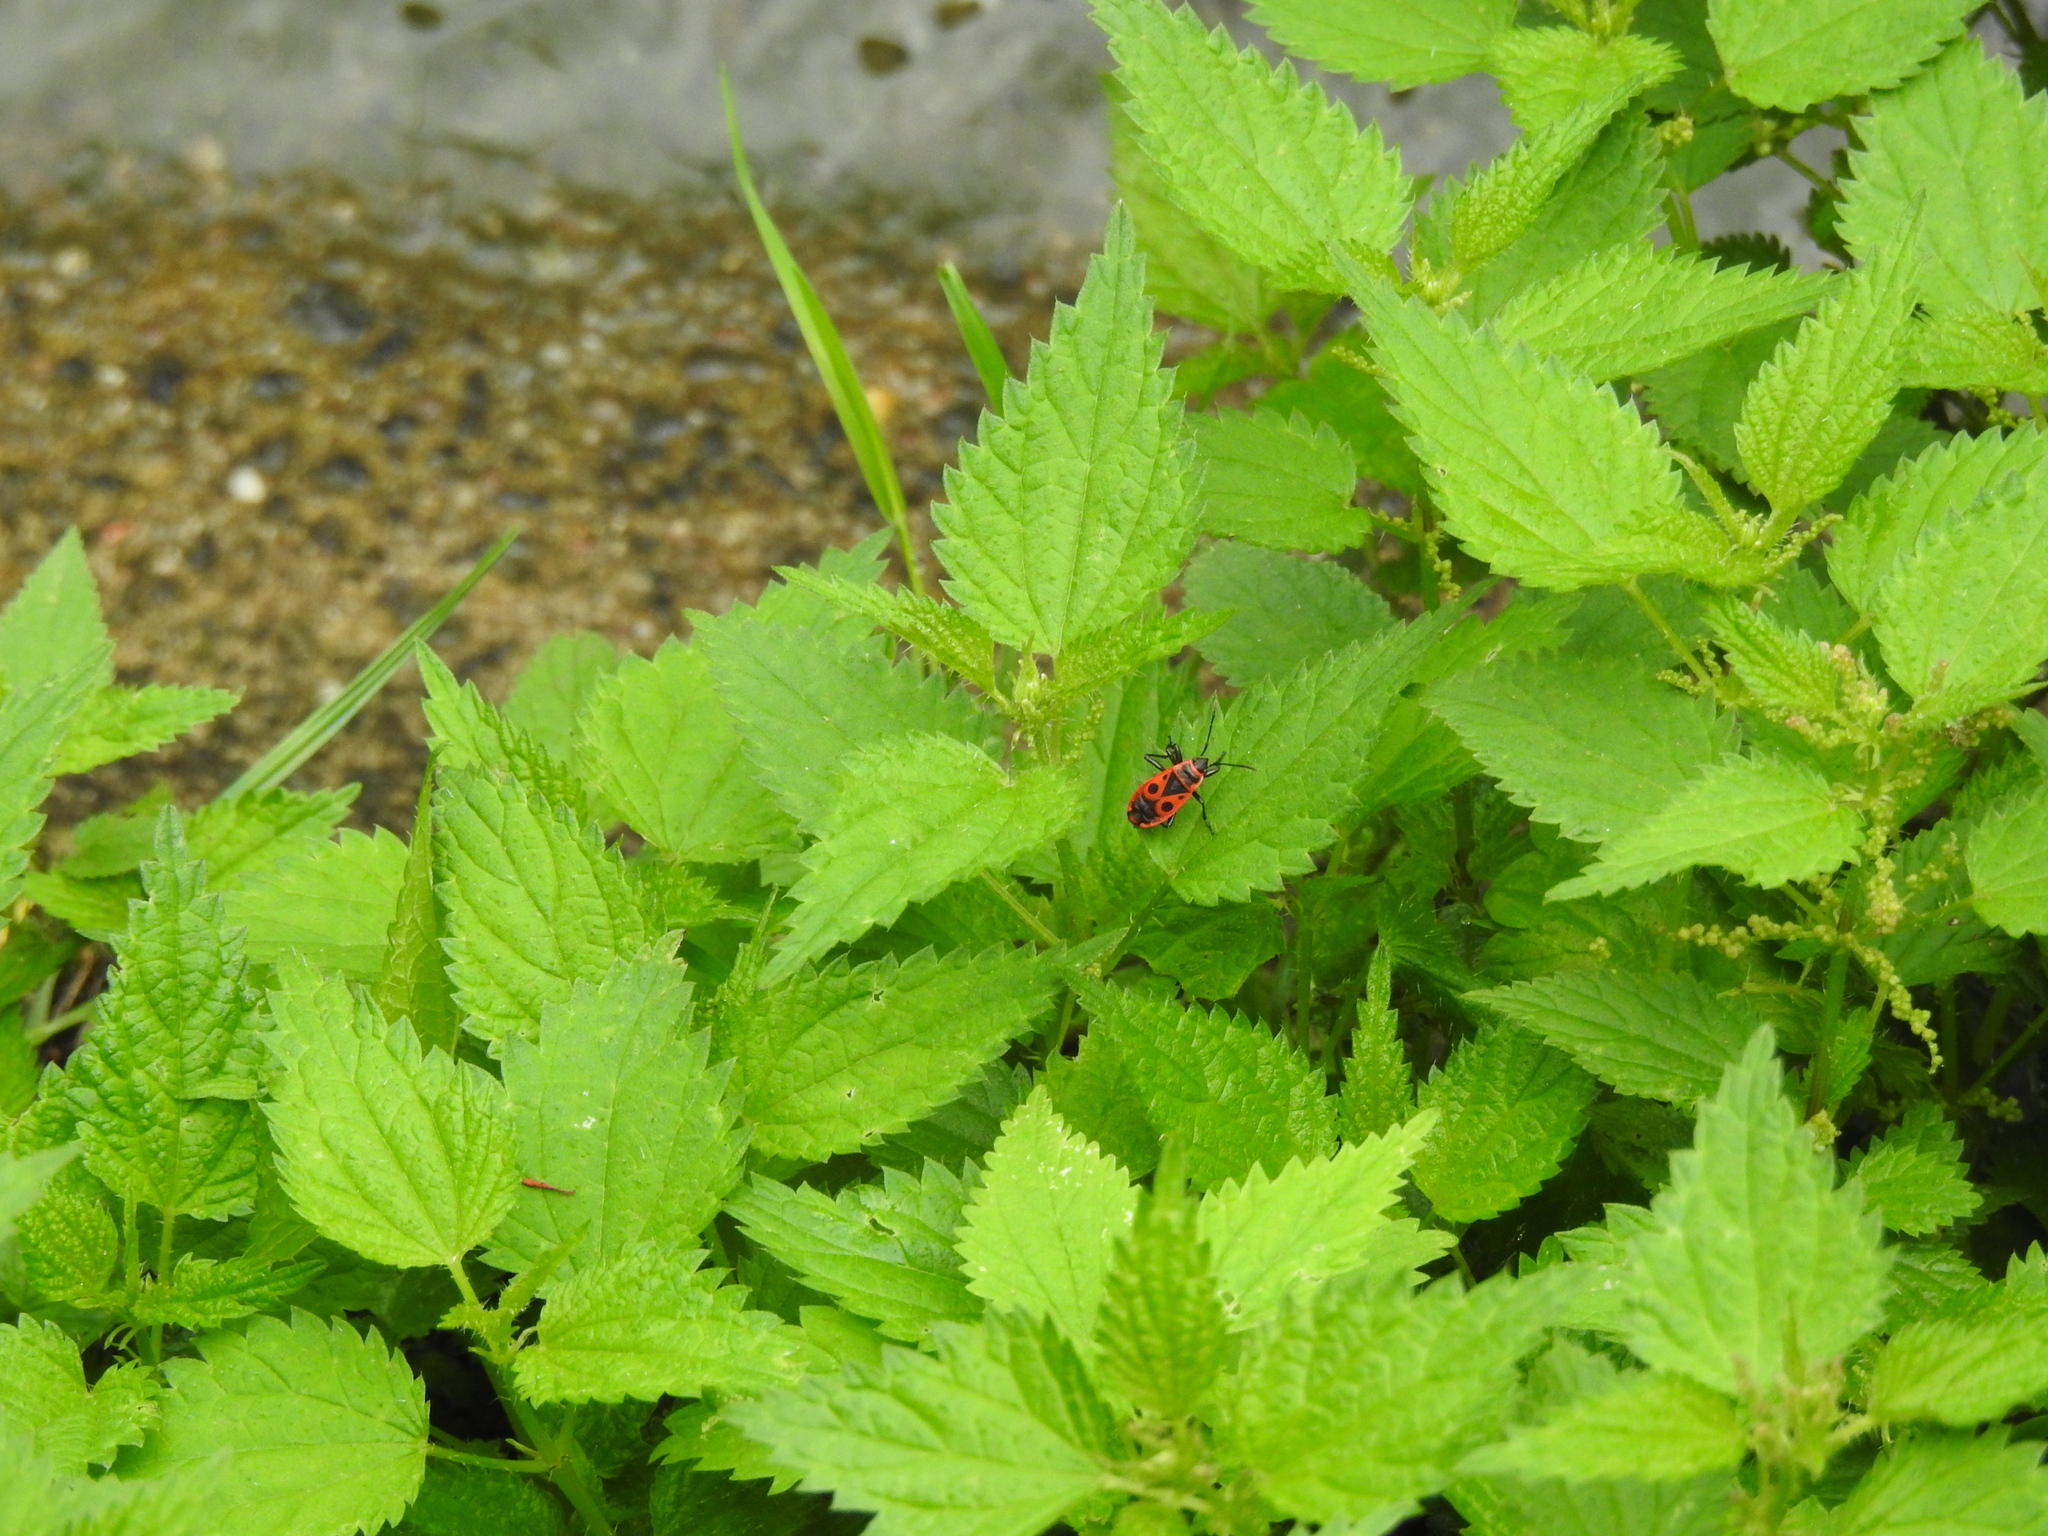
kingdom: Animalia
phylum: Arthropoda
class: Insecta
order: Hemiptera
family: Pyrrhocoridae
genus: Pyrrhocoris
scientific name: Pyrrhocoris apterus
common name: Firebug
